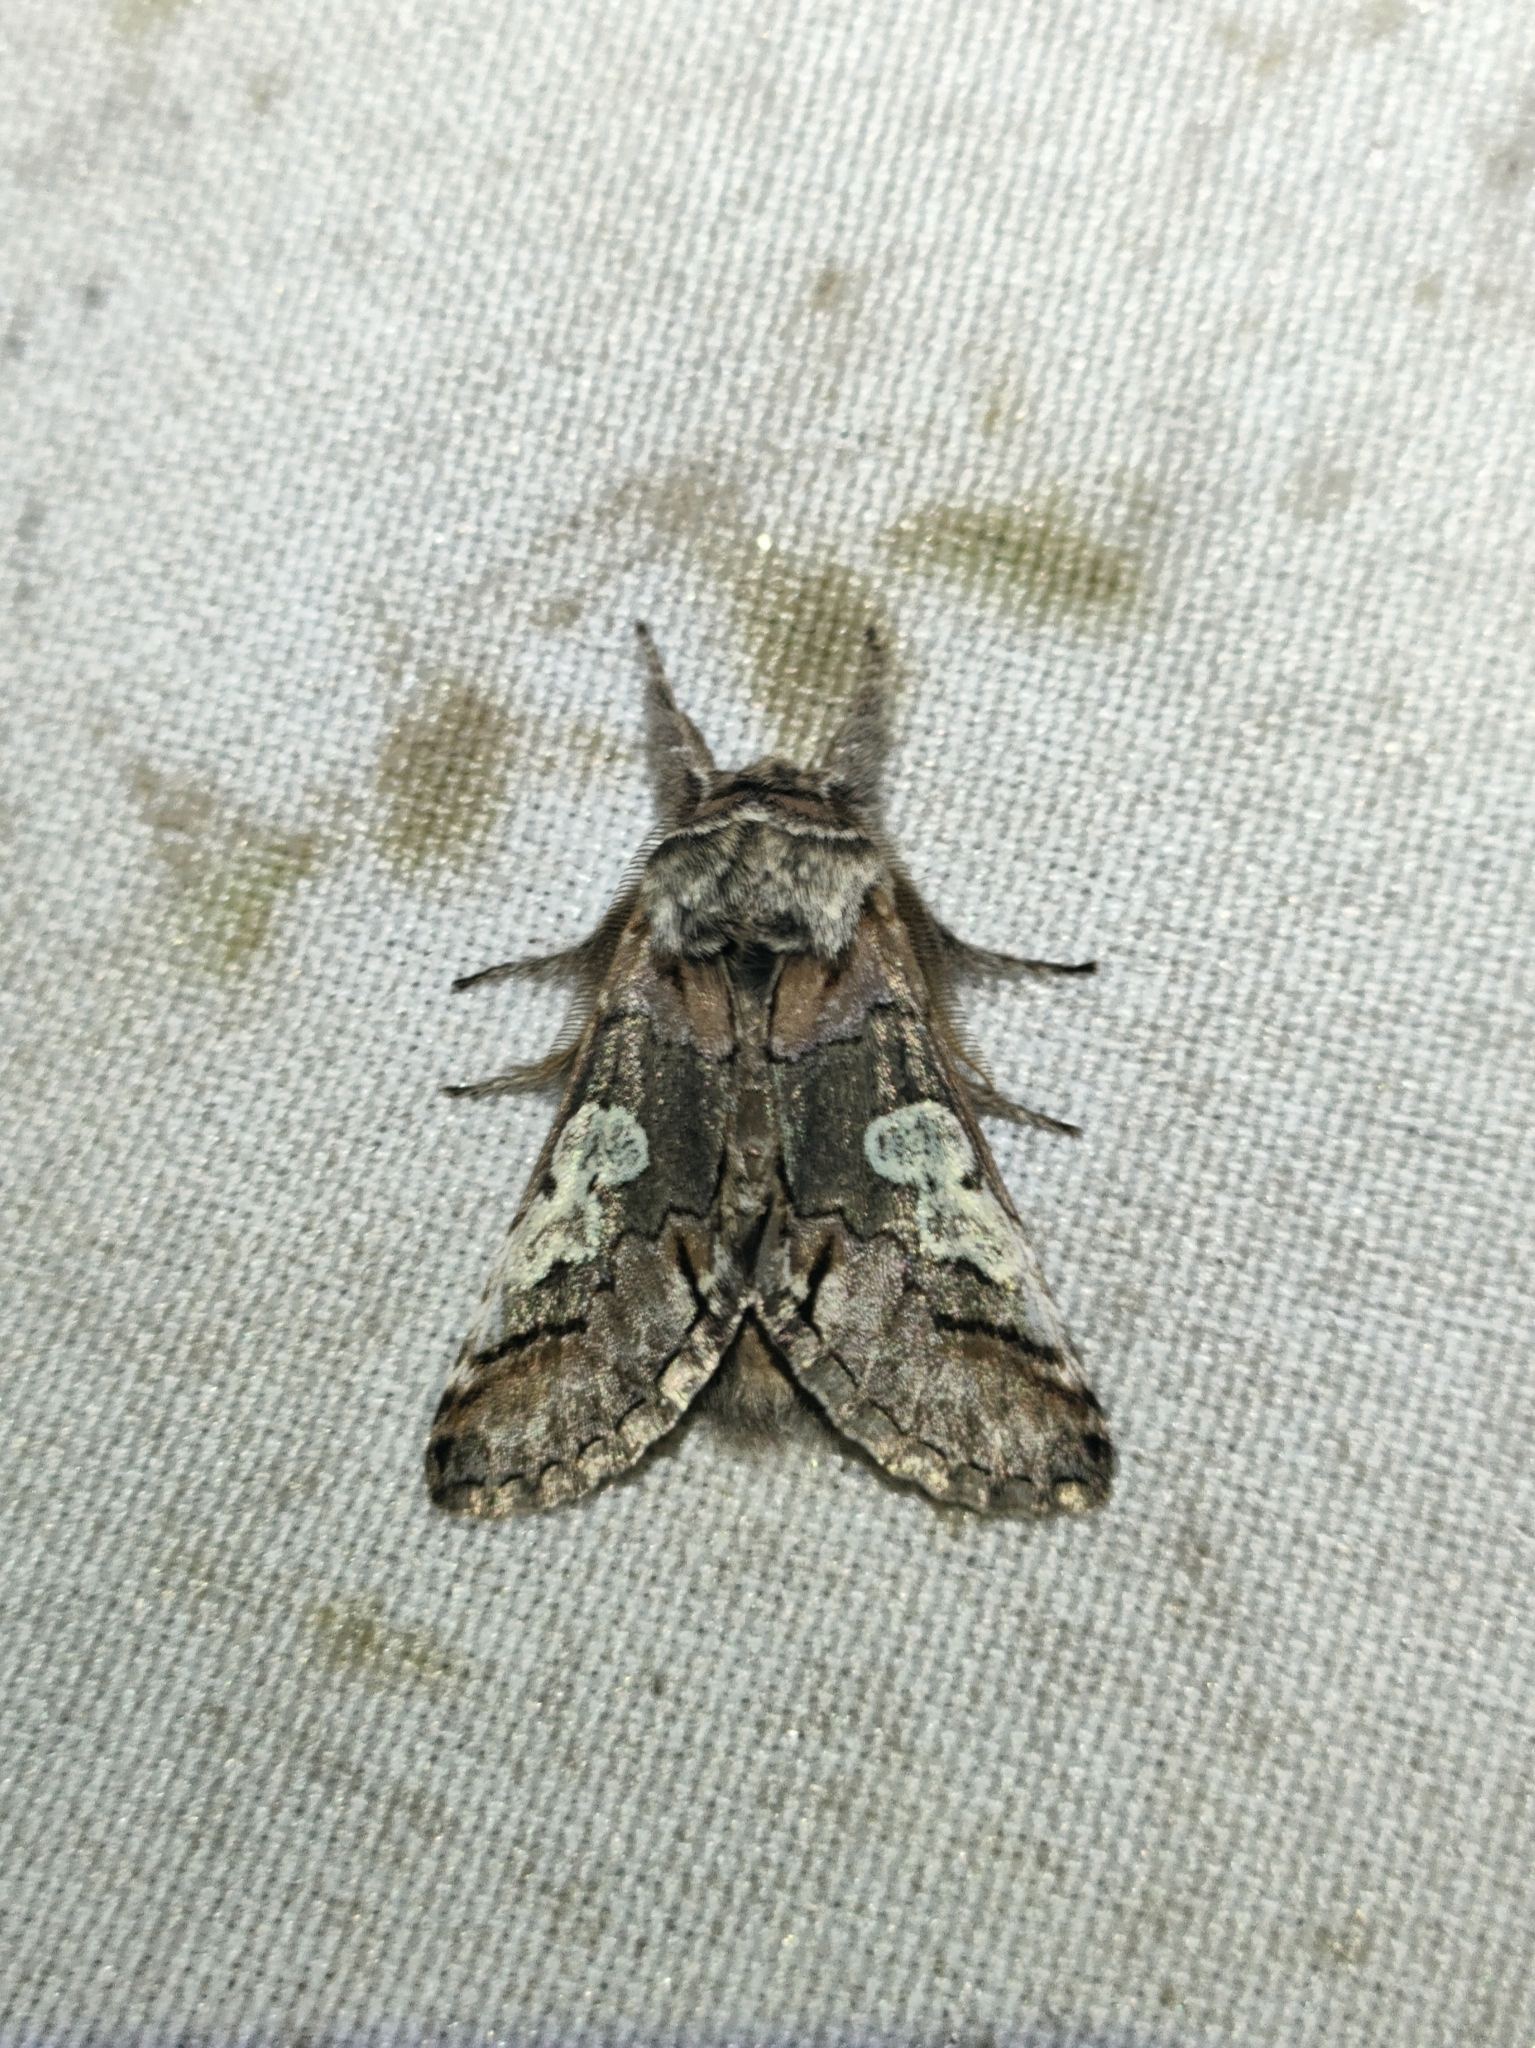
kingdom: Animalia
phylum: Arthropoda
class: Insecta
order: Lepidoptera
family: Noctuidae
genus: Diloba
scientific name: Diloba caeruleocephala
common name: Figure of eight
